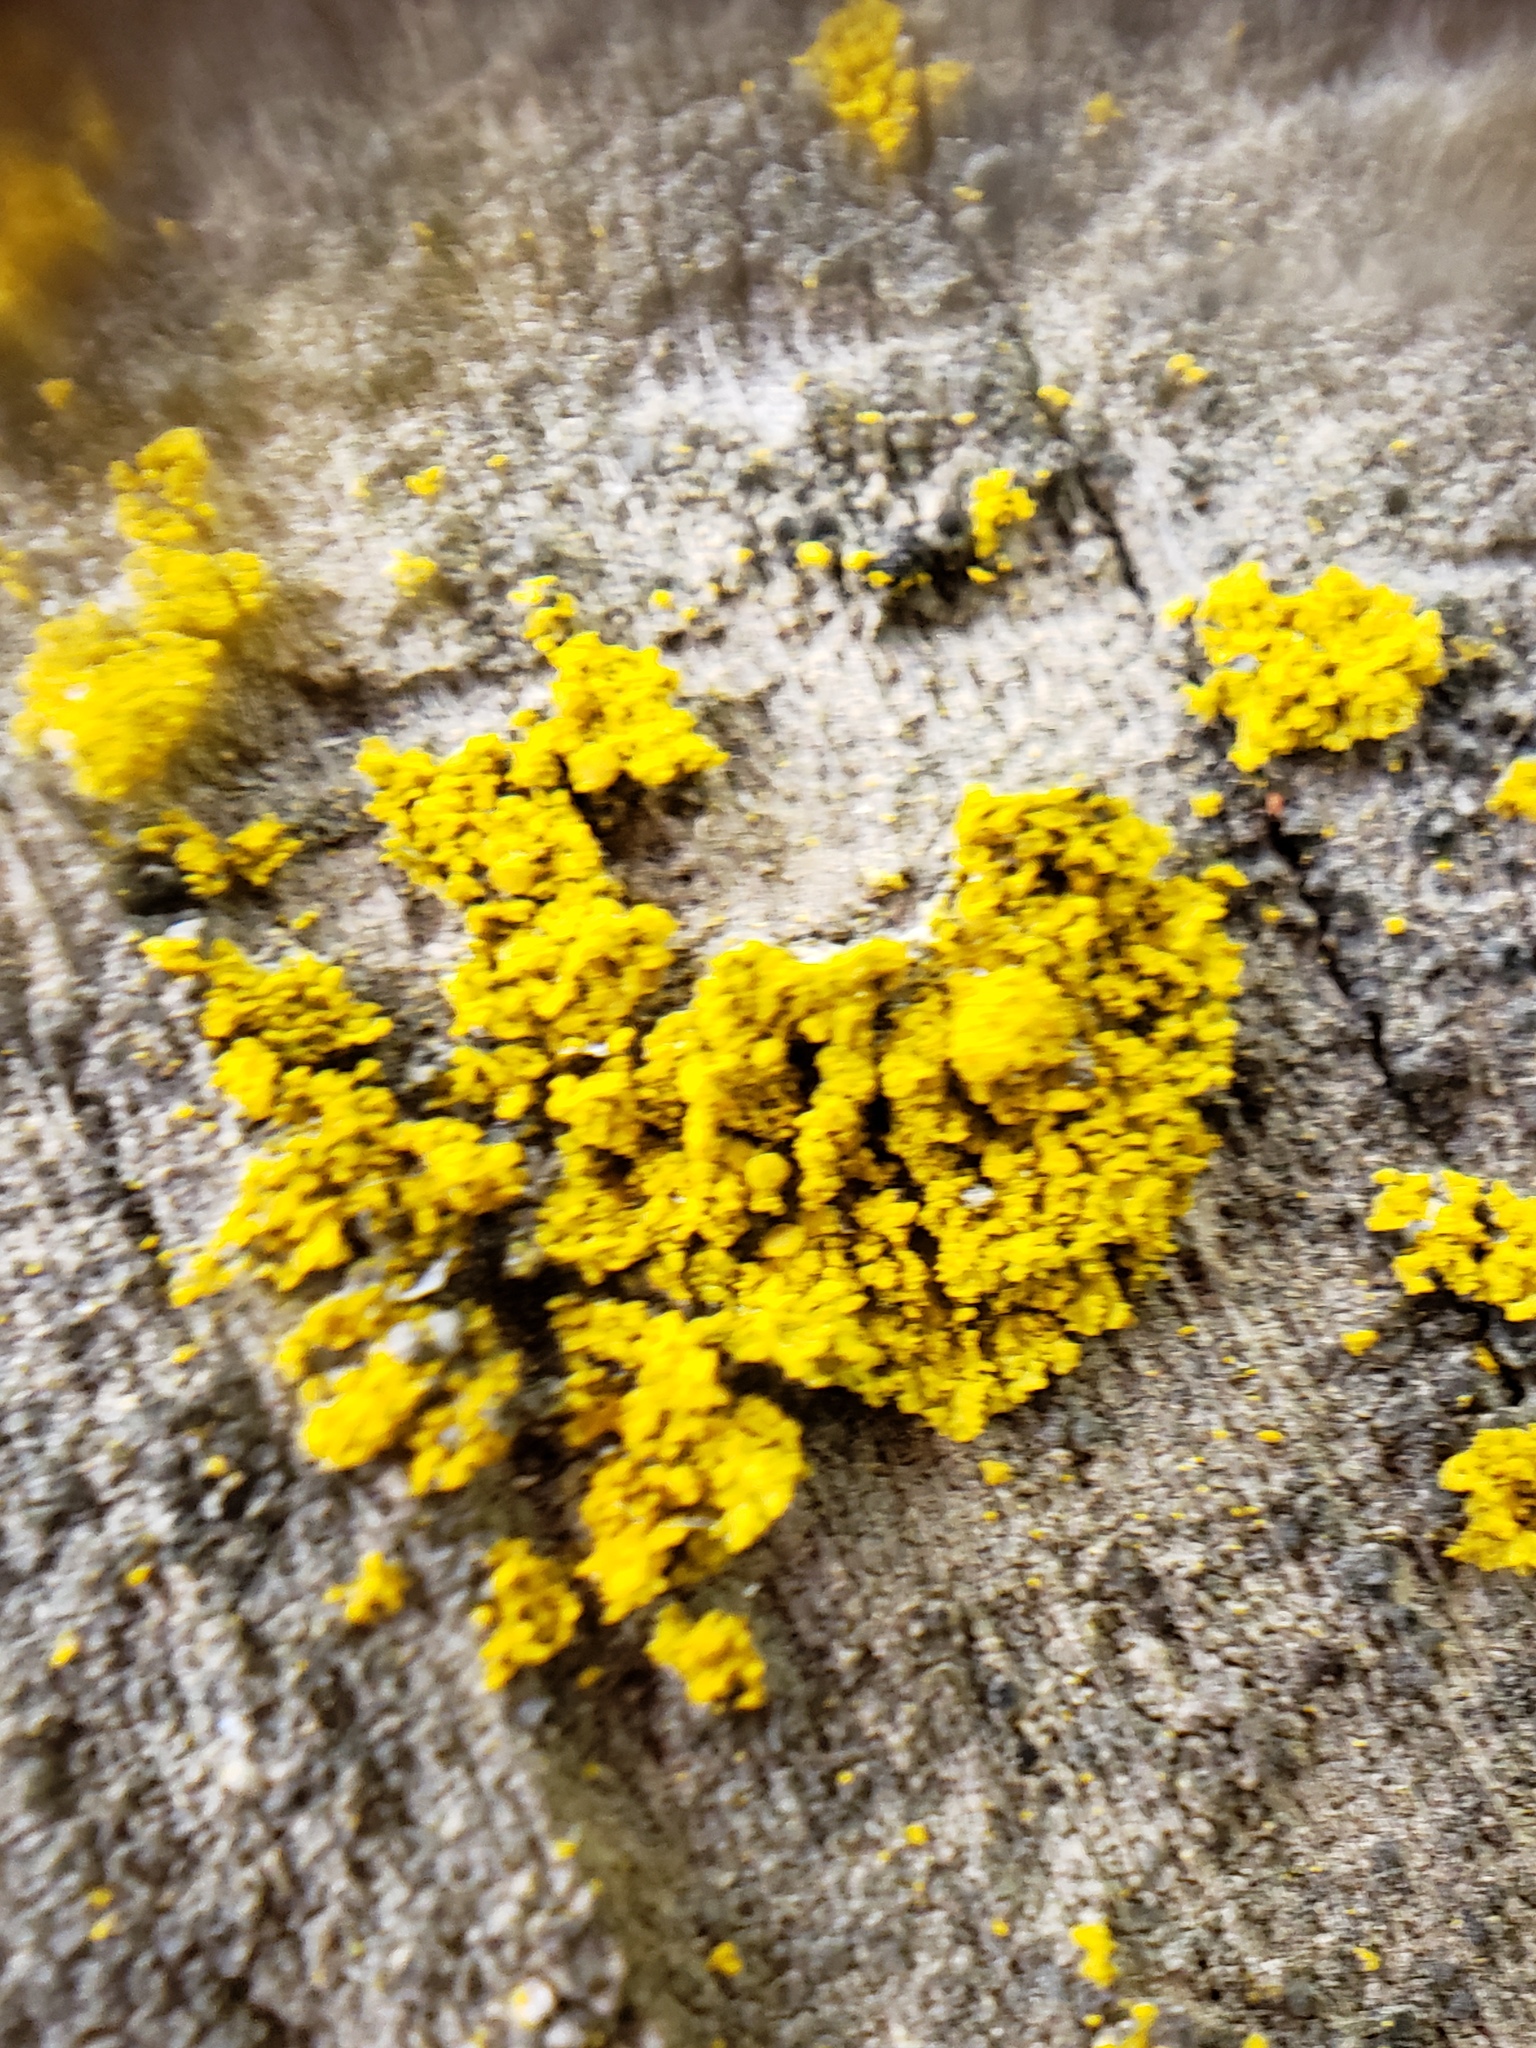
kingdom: Fungi
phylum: Ascomycota
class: Candelariomycetes
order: Candelariales
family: Candelariaceae
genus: Candelaria
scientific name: Candelaria concolor
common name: Candleflame lichen
